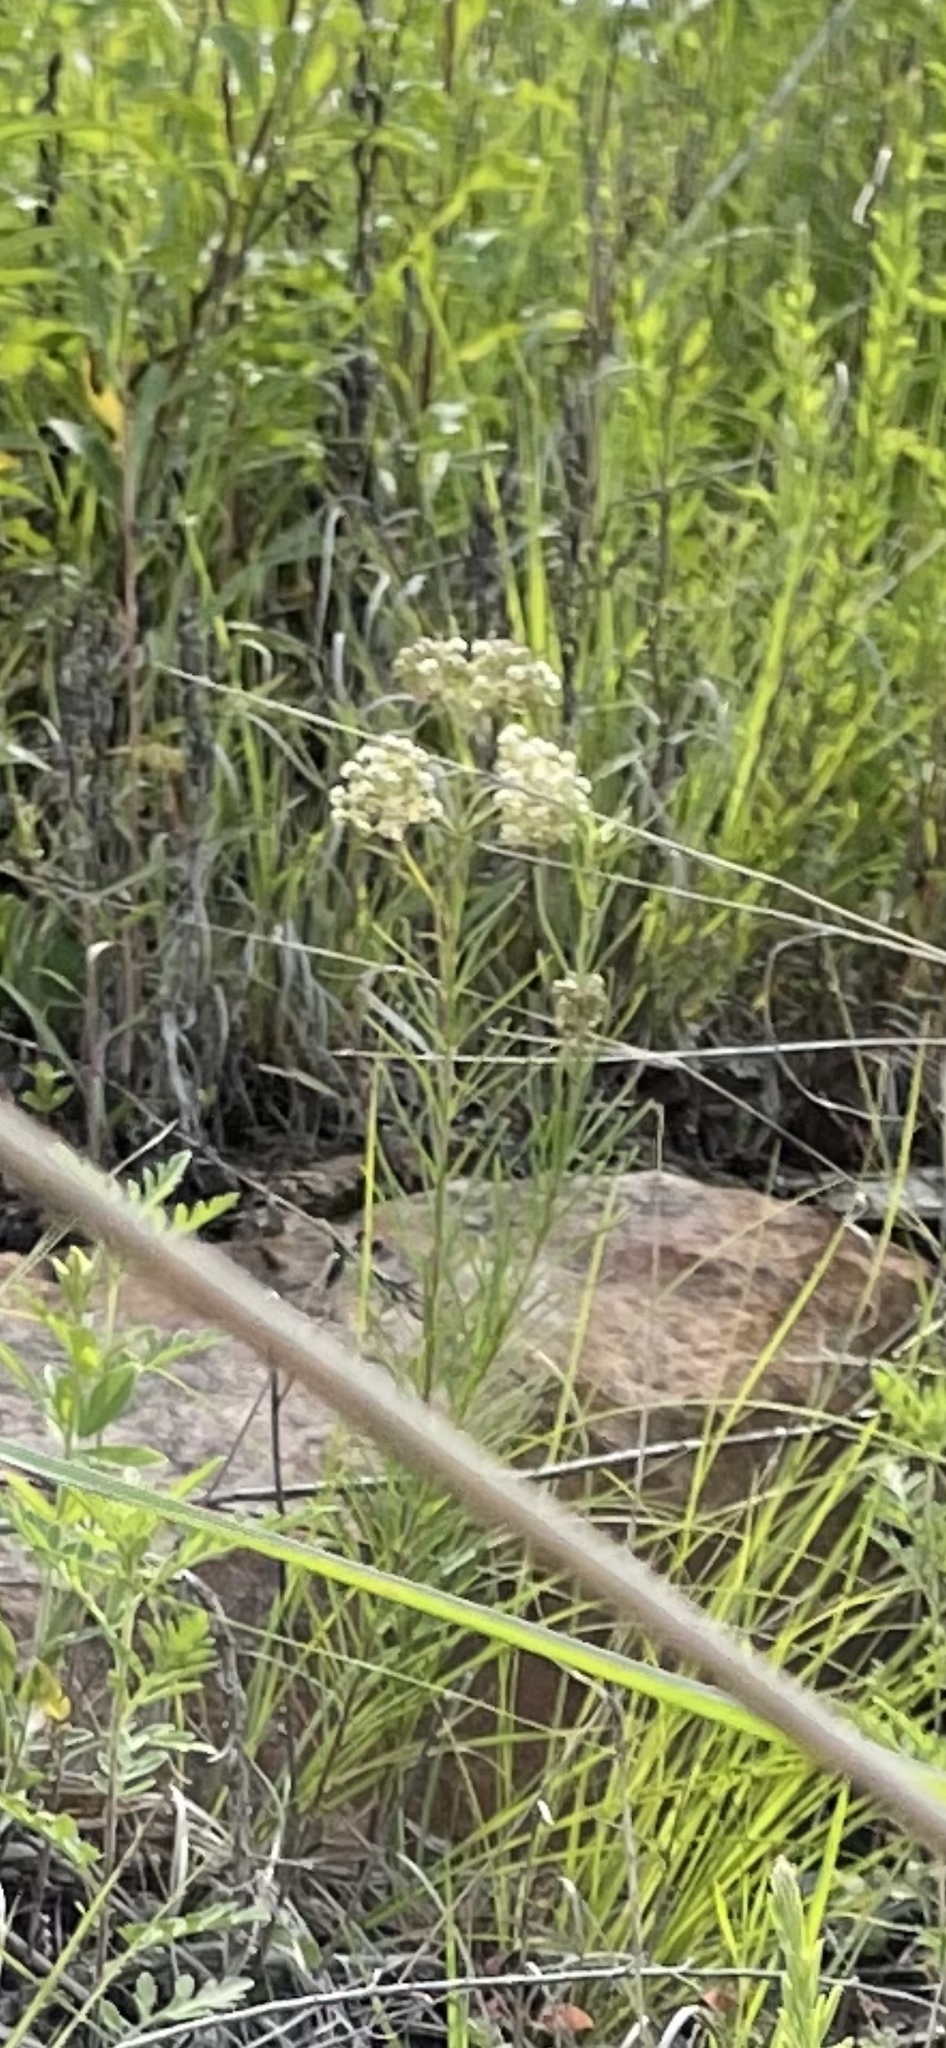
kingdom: Plantae
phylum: Tracheophyta
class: Magnoliopsida
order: Gentianales
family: Apocynaceae
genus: Asclepias
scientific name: Asclepias verticillata
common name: Eastern whorled milkweed
